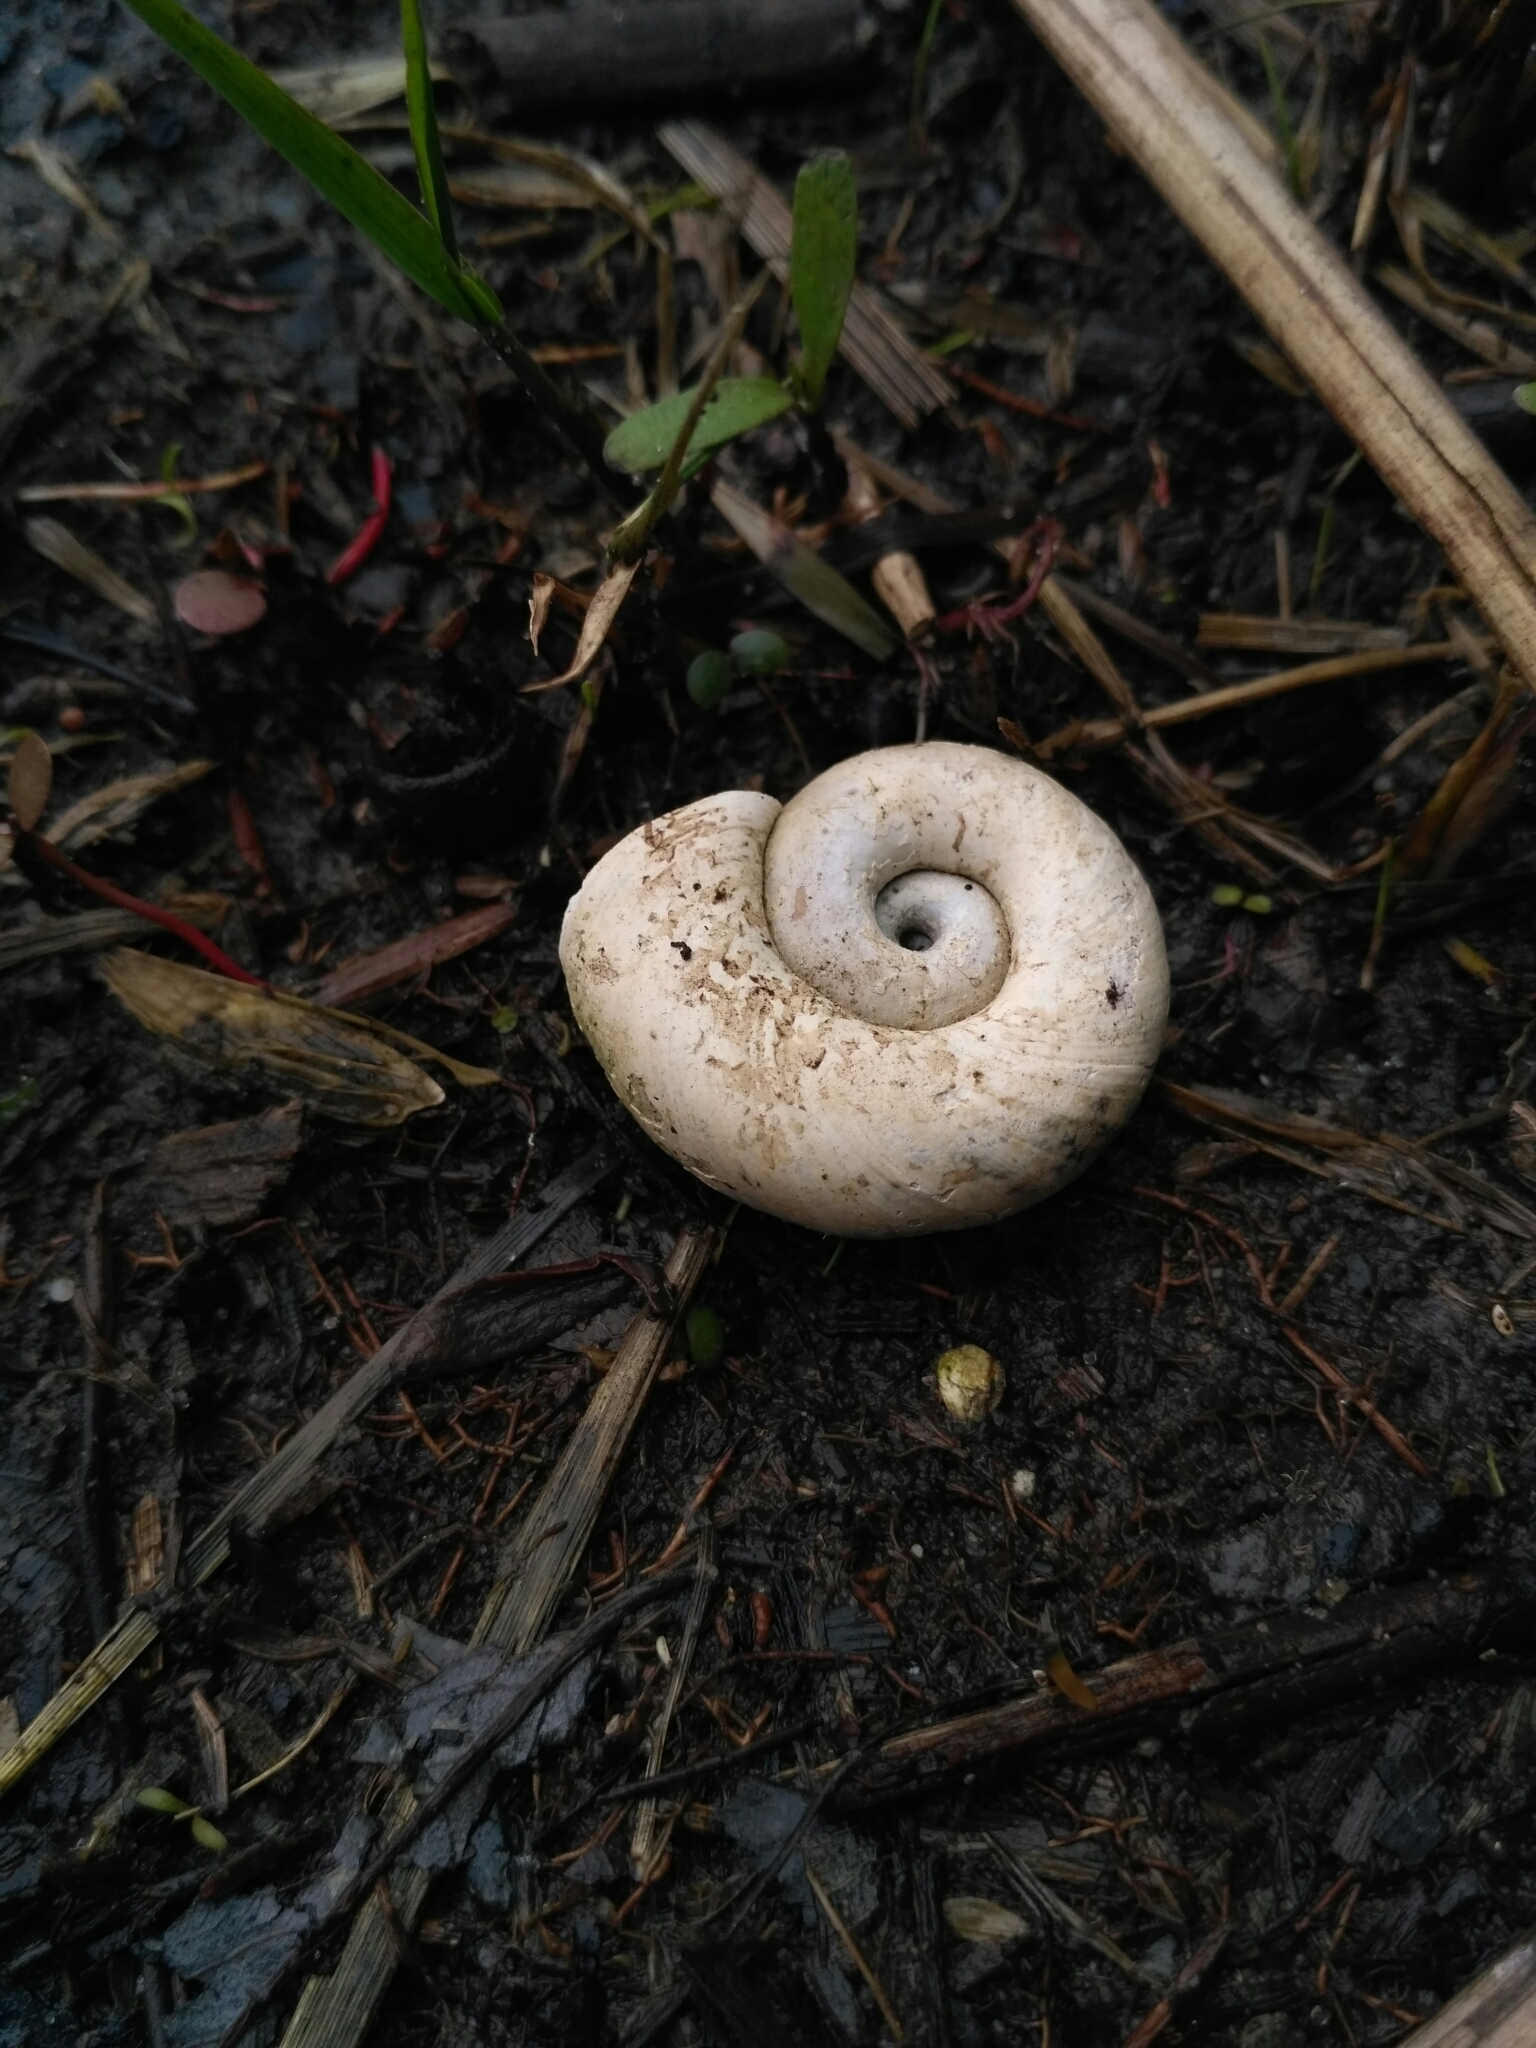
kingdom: Animalia
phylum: Mollusca
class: Gastropoda
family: Planorbidae
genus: Planorbarius
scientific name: Planorbarius corneus
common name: Great ramshorn
